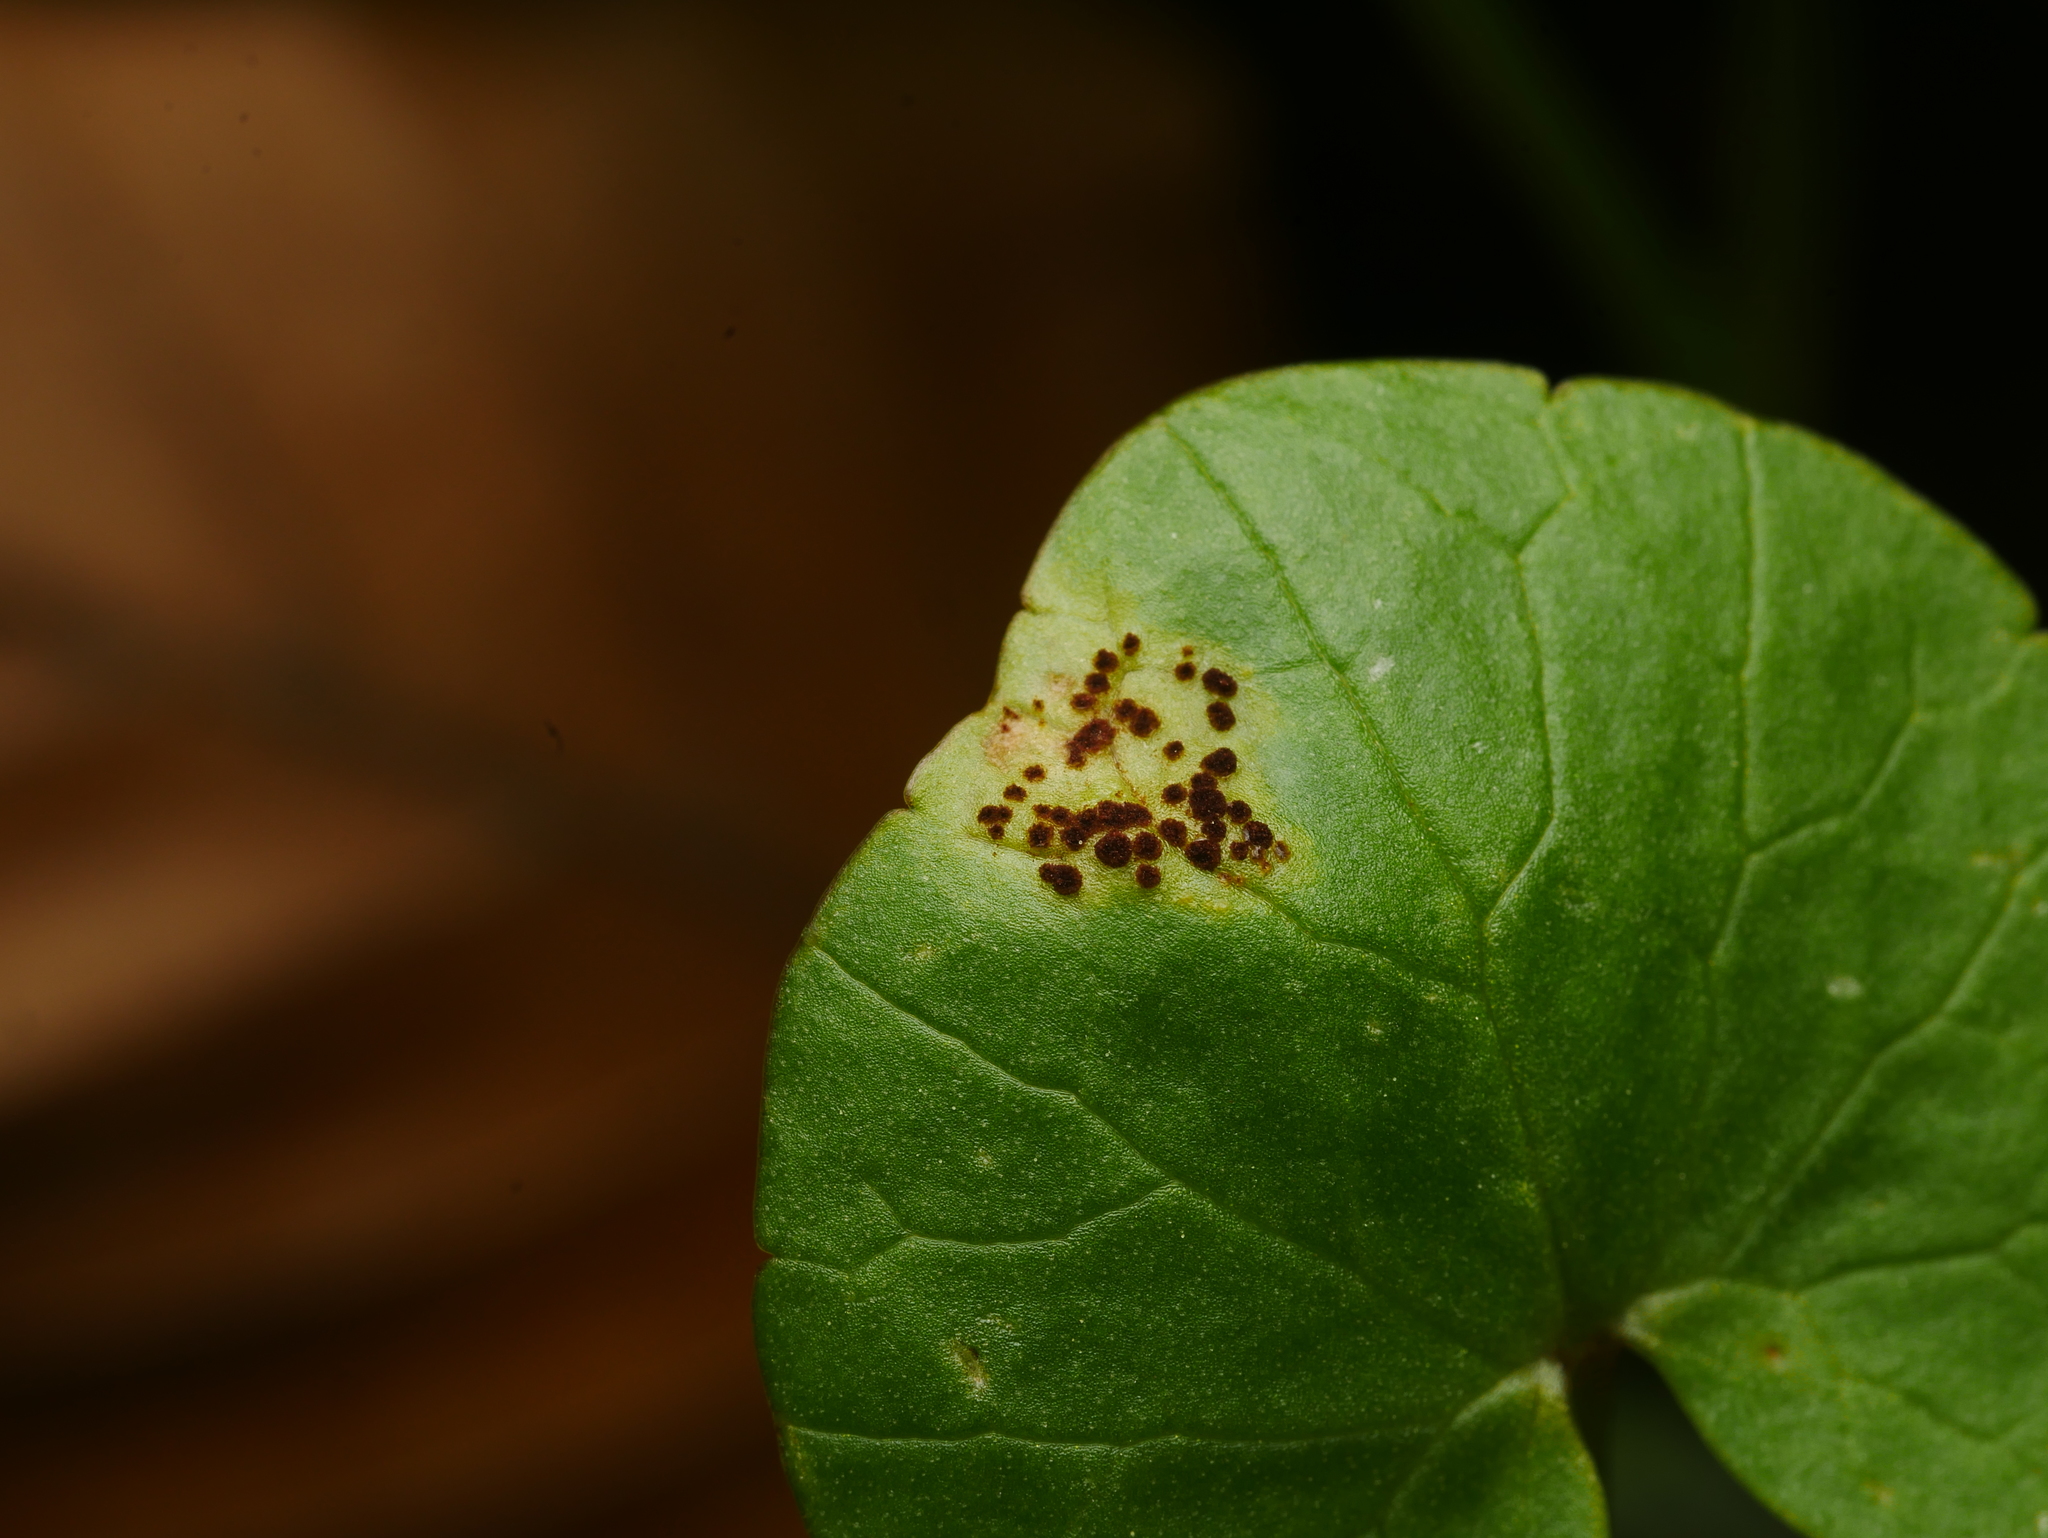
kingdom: Fungi
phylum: Basidiomycota
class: Pucciniomycetes
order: Pucciniales
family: Pucciniaceae
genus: Uromyces
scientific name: Uromyces ficariae
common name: Bitter chocolate rust
